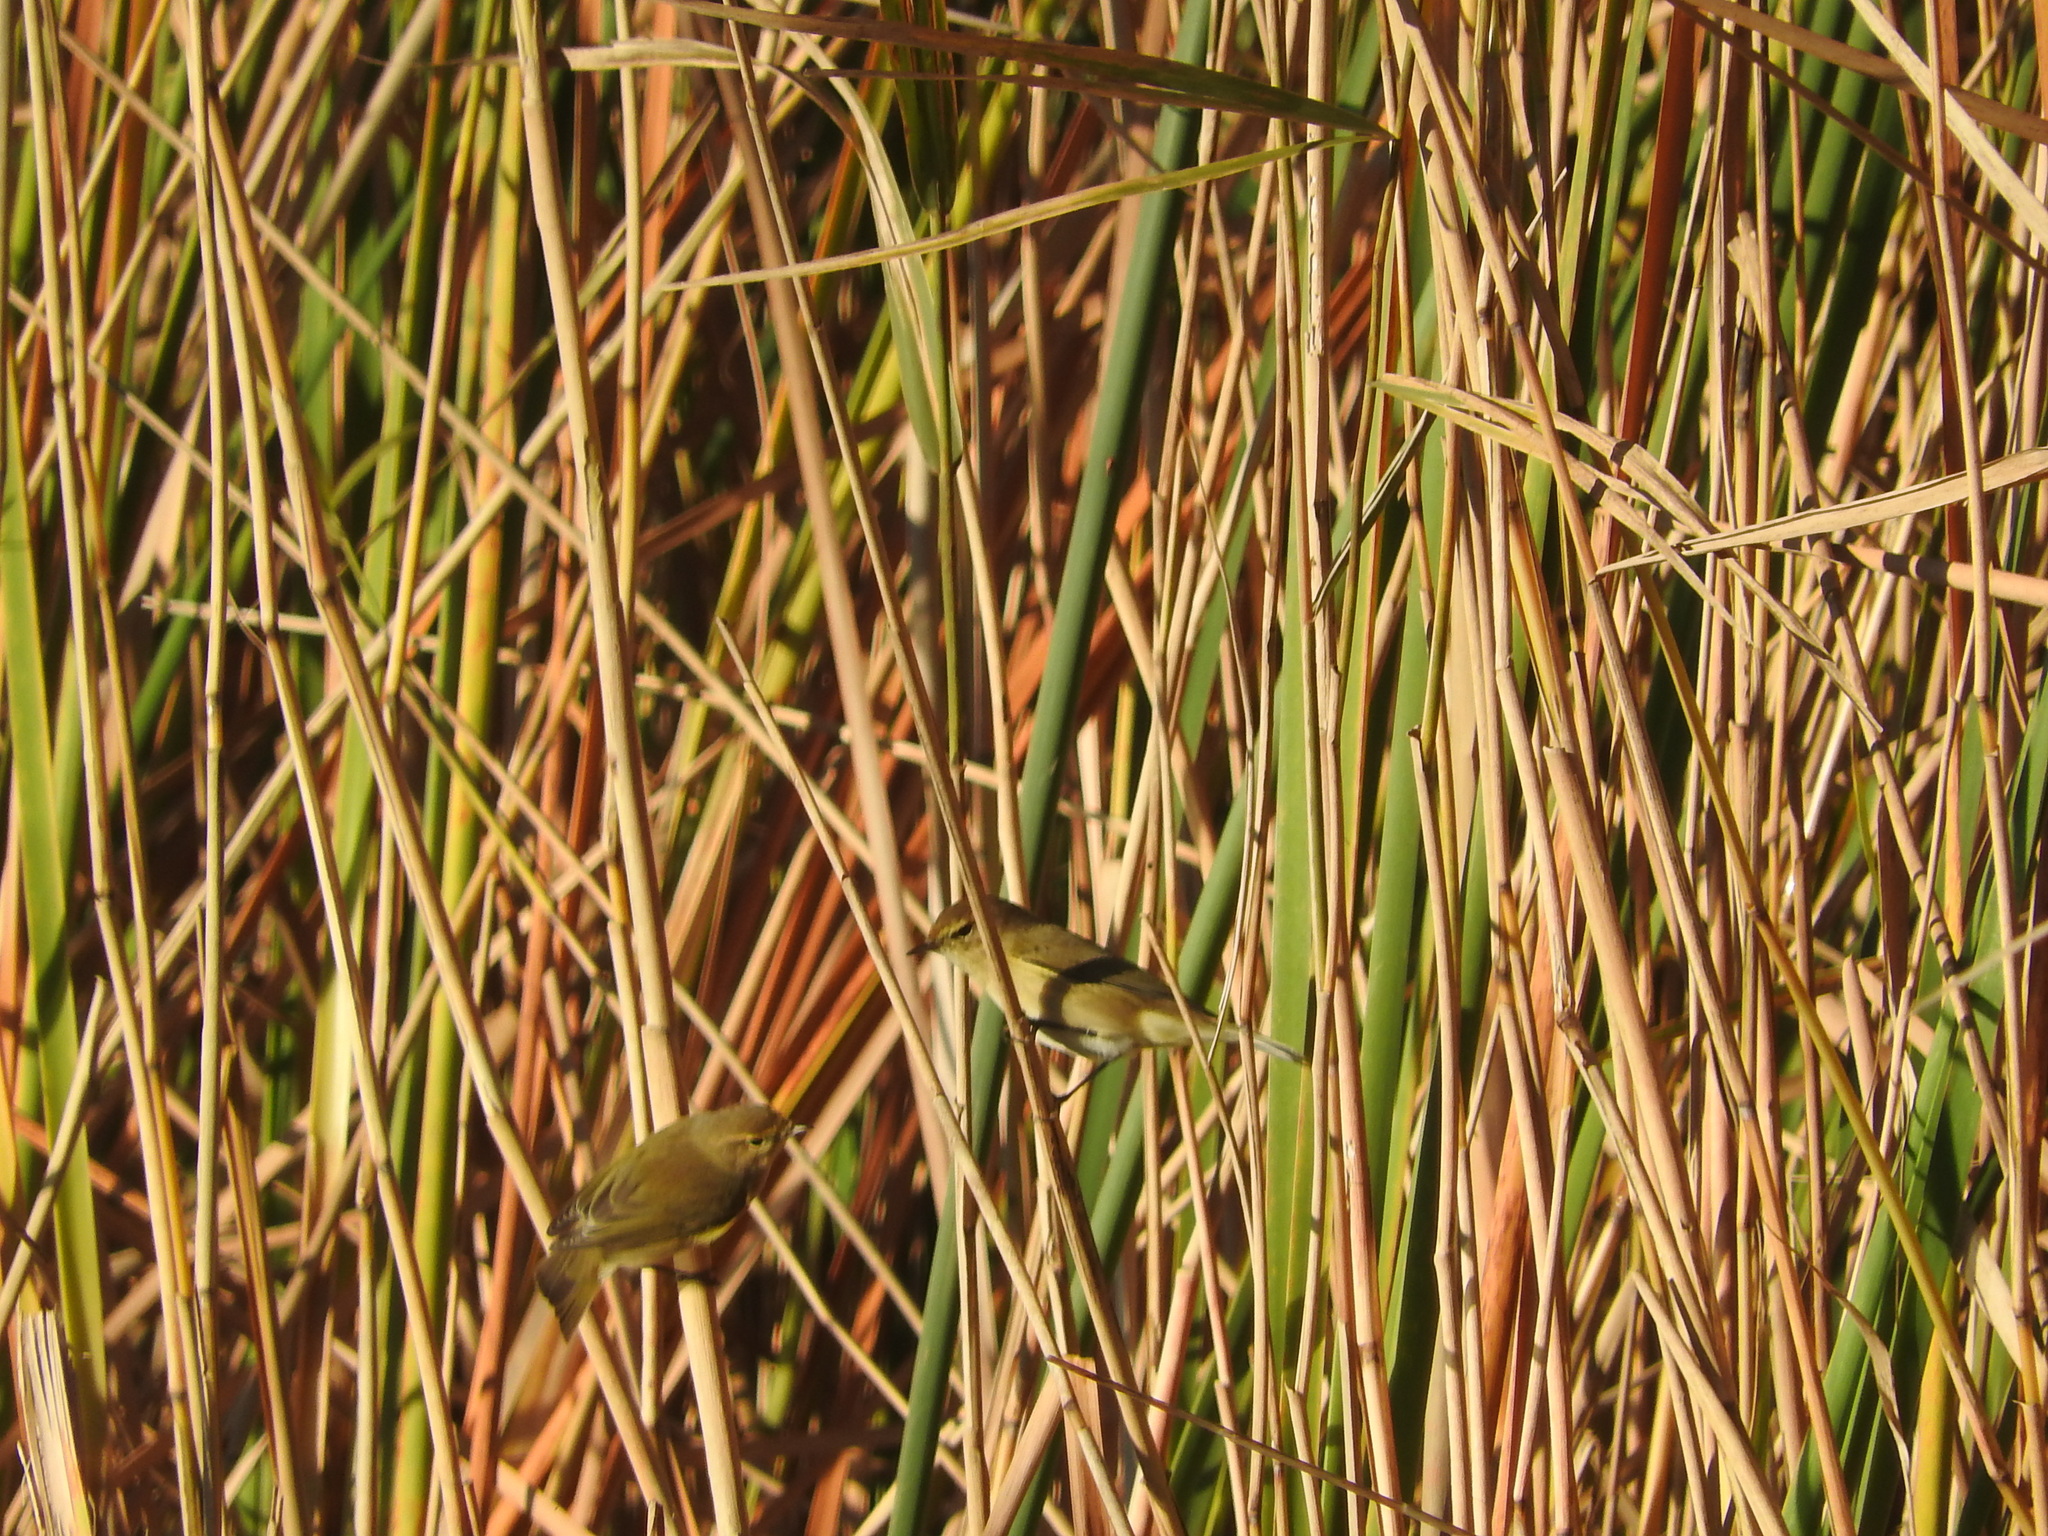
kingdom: Animalia
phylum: Chordata
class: Aves
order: Passeriformes
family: Phylloscopidae
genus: Phylloscopus
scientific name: Phylloscopus collybita
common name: Common chiffchaff
